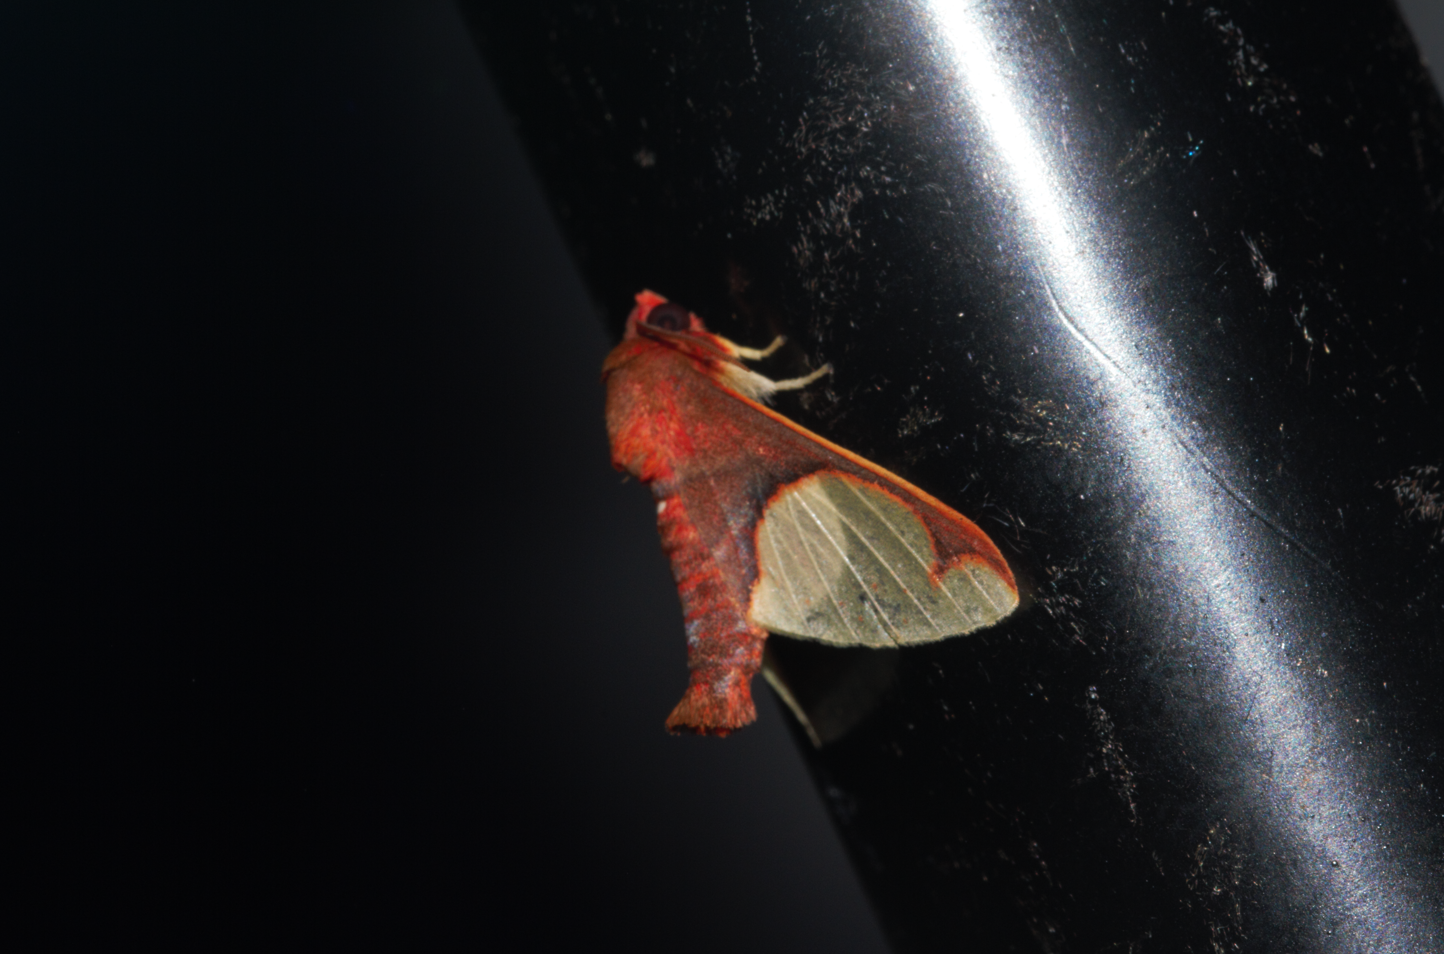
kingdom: Animalia
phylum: Arthropoda
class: Insecta
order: Lepidoptera
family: Erebidae
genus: Neonerita
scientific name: Neonerita incarnata
